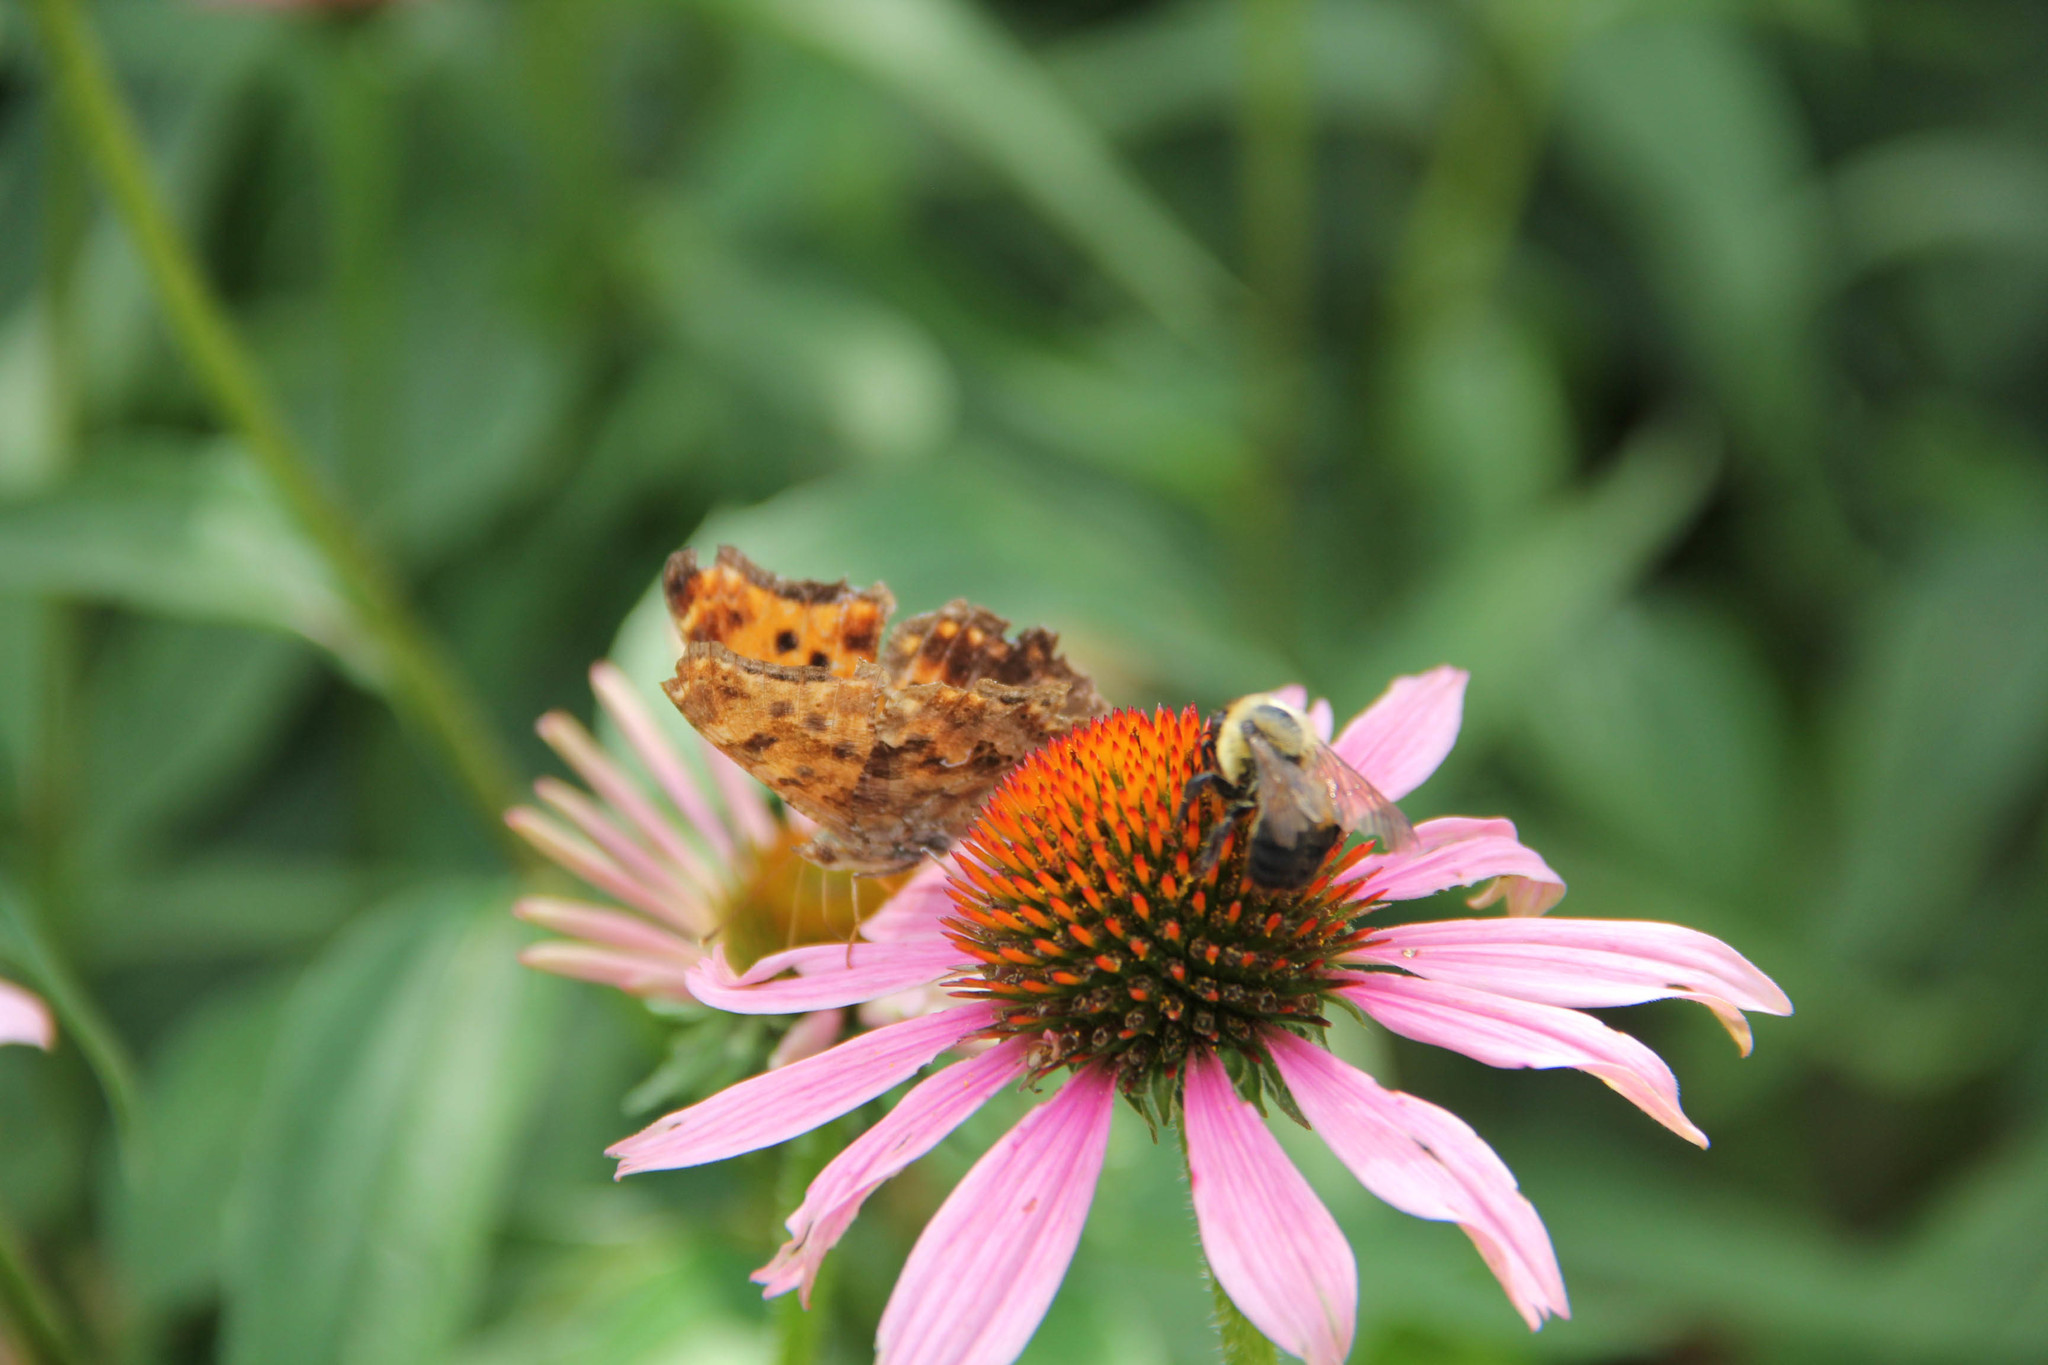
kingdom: Animalia
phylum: Arthropoda
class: Insecta
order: Lepidoptera
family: Nymphalidae
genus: Polygonia
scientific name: Polygonia comma
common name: Eastern comma
